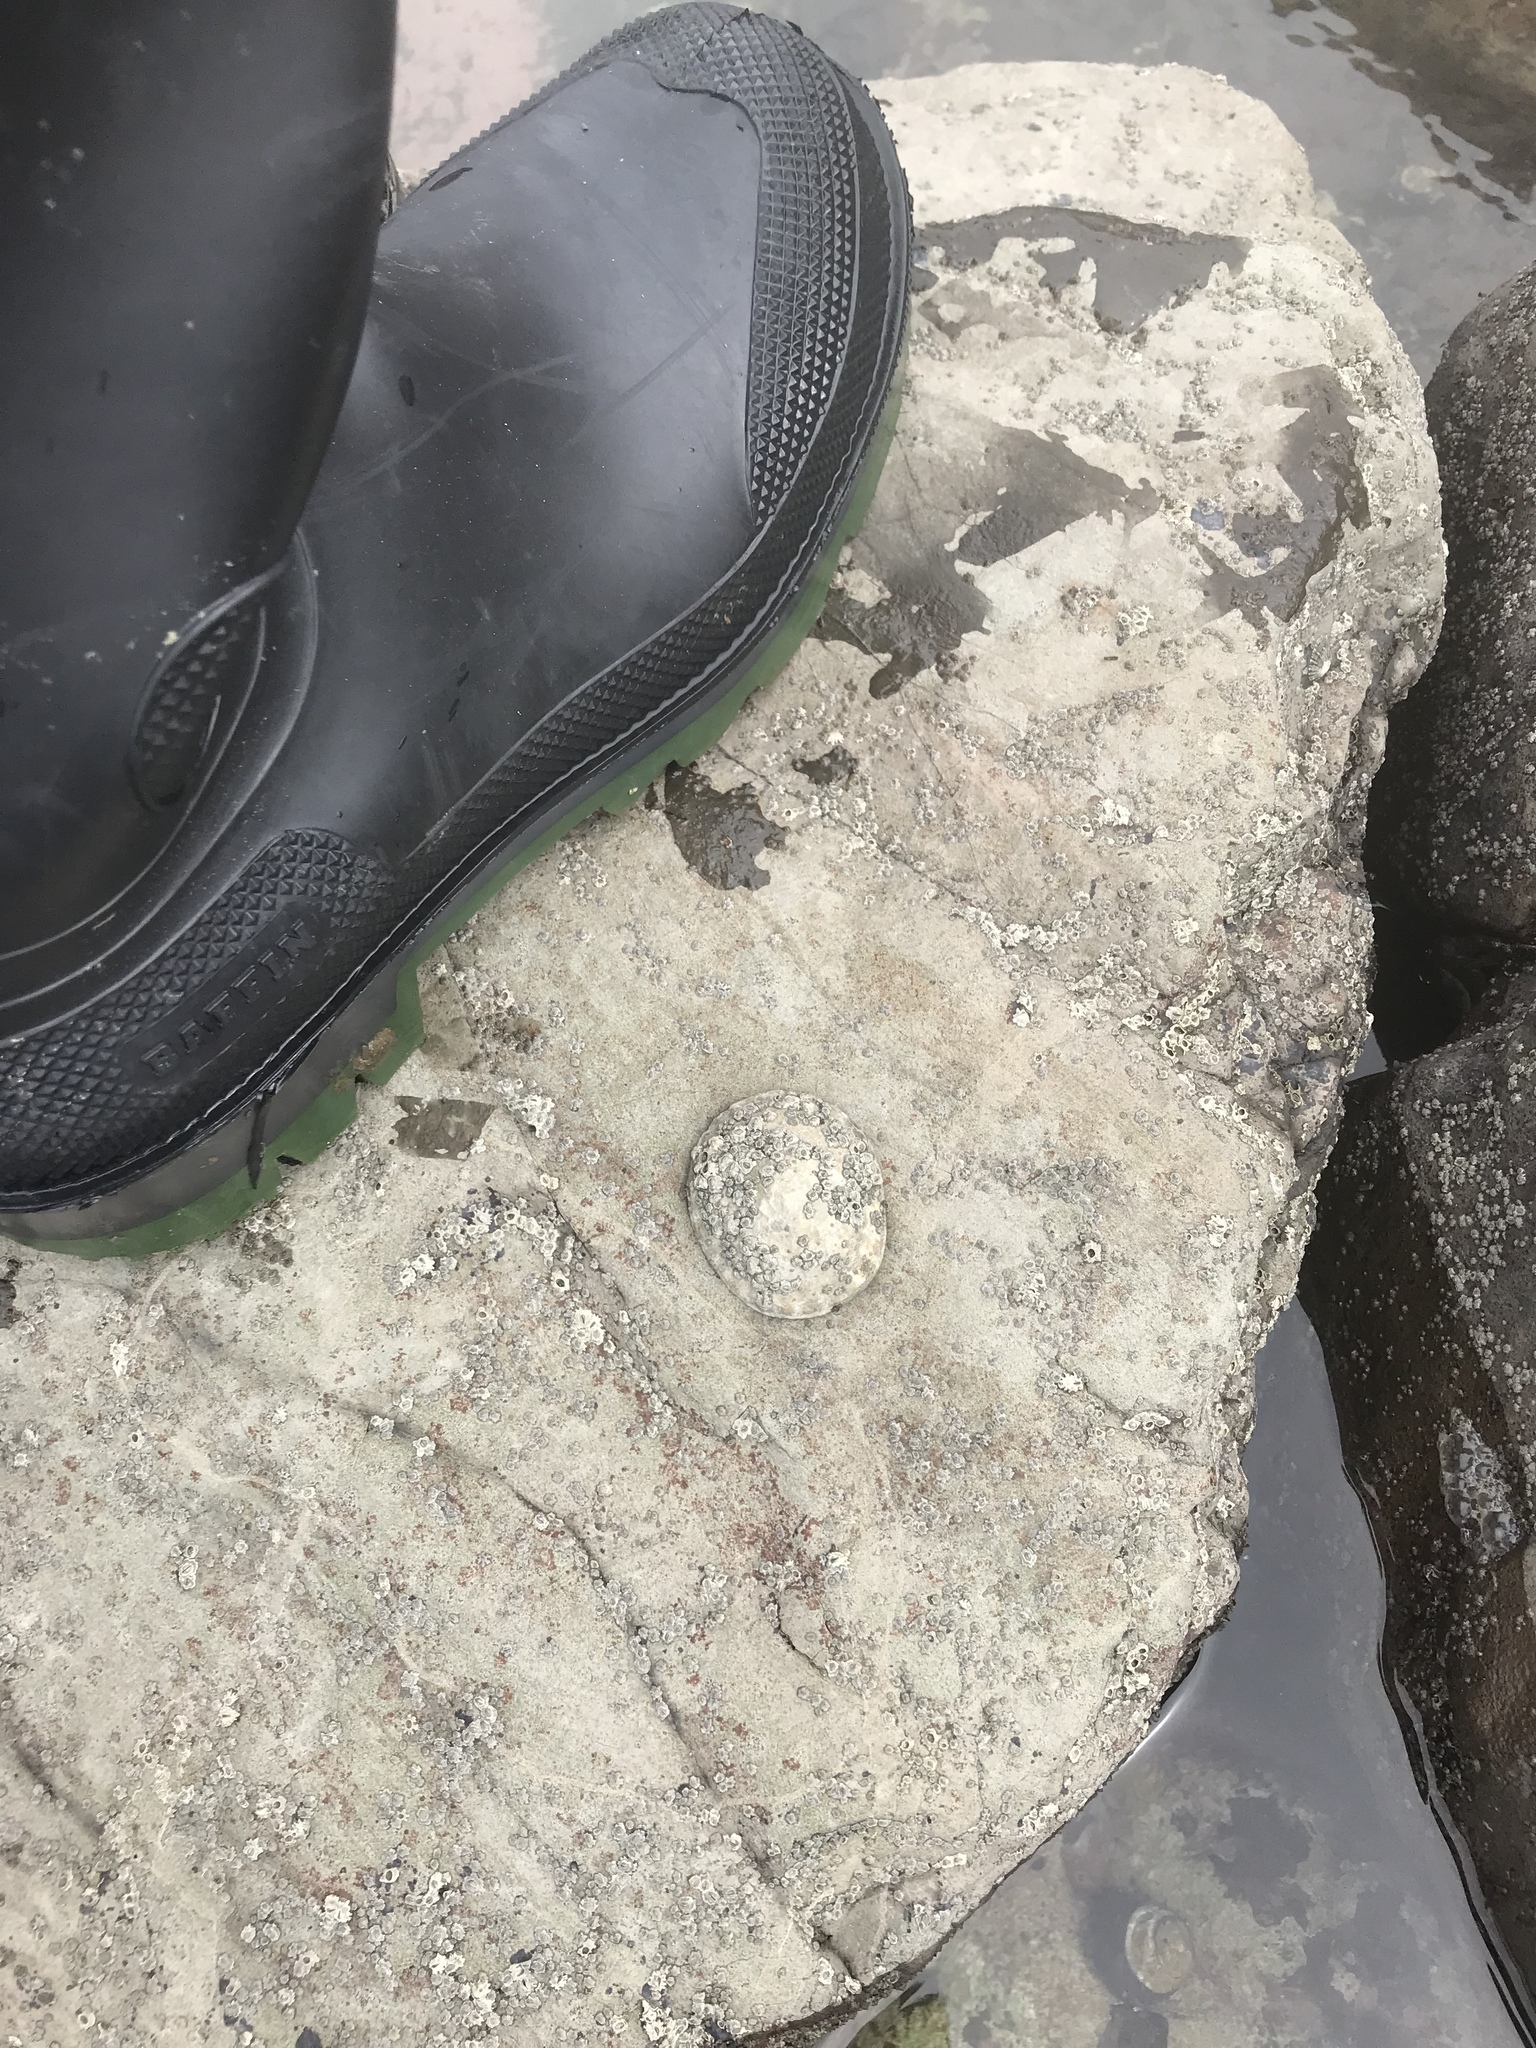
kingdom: Animalia
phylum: Mollusca
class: Gastropoda
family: Lottiidae
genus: Lottia
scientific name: Lottia gigantea
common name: Owl limpet
